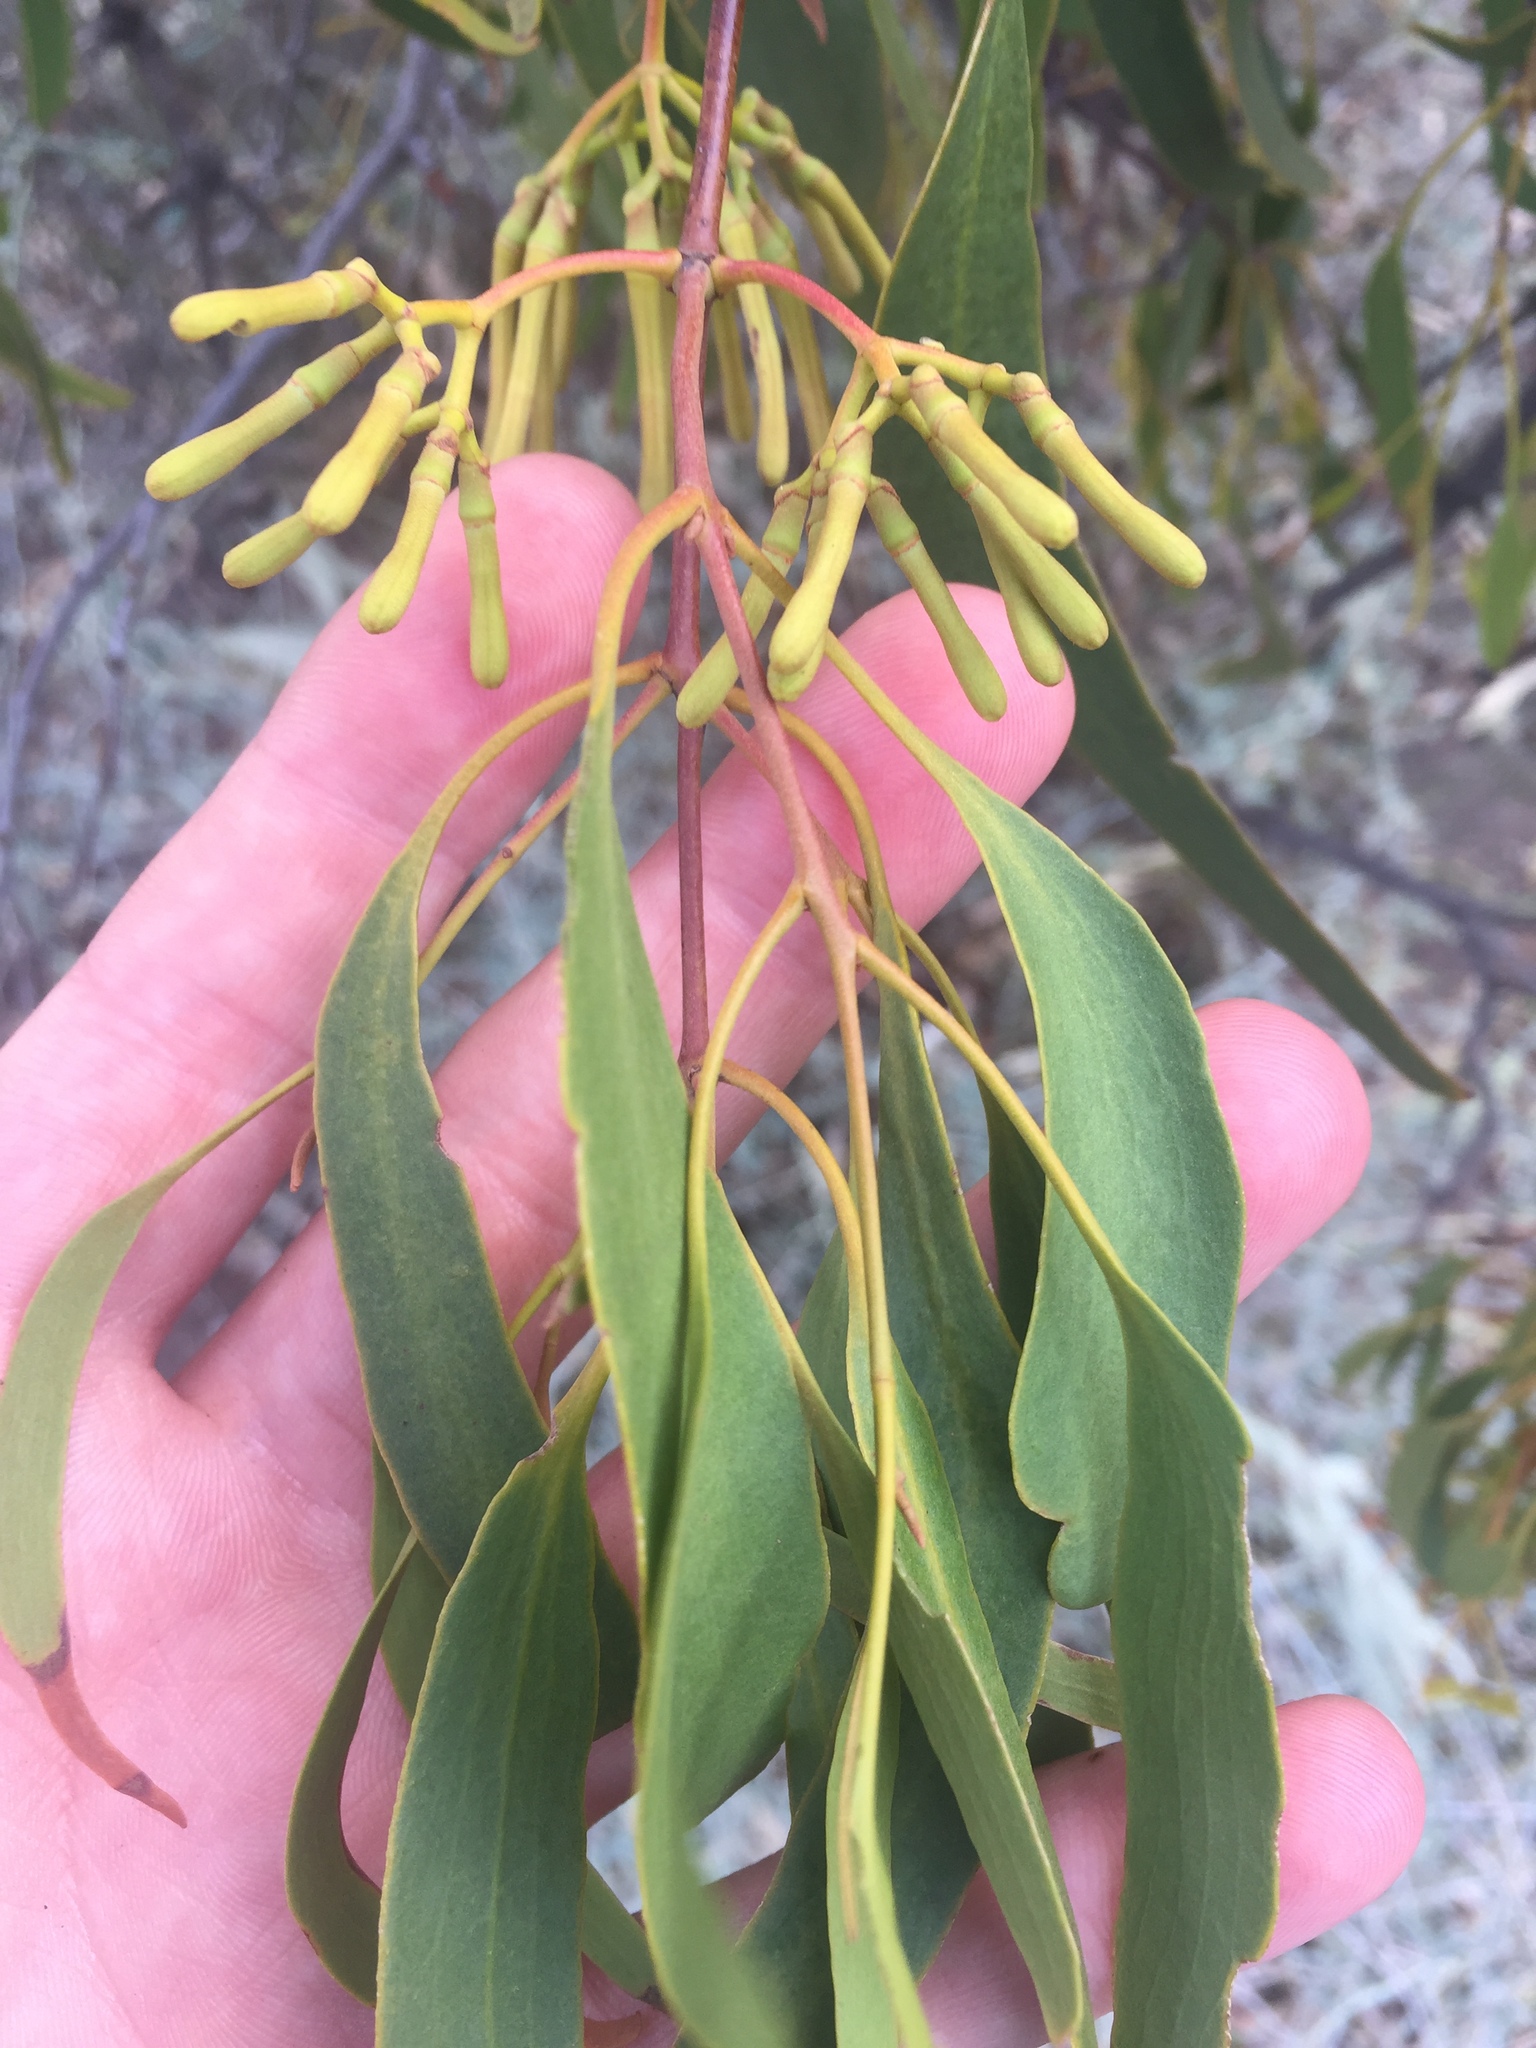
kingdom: Plantae
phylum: Tracheophyta
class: Magnoliopsida
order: Santalales
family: Loranthaceae
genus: Amyema
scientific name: Amyema miquelii
